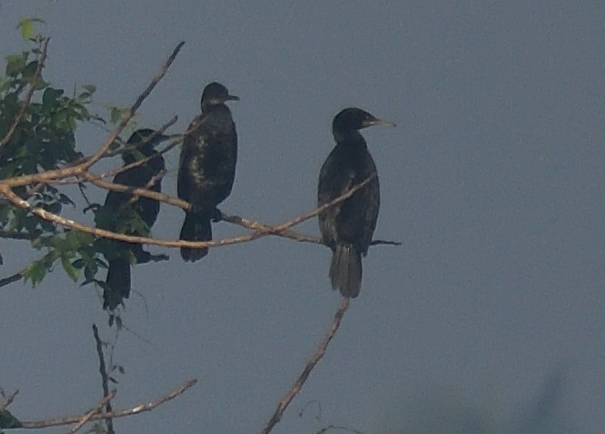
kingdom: Animalia
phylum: Chordata
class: Aves
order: Suliformes
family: Phalacrocoracidae
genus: Microcarbo
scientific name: Microcarbo niger
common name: Little cormorant
